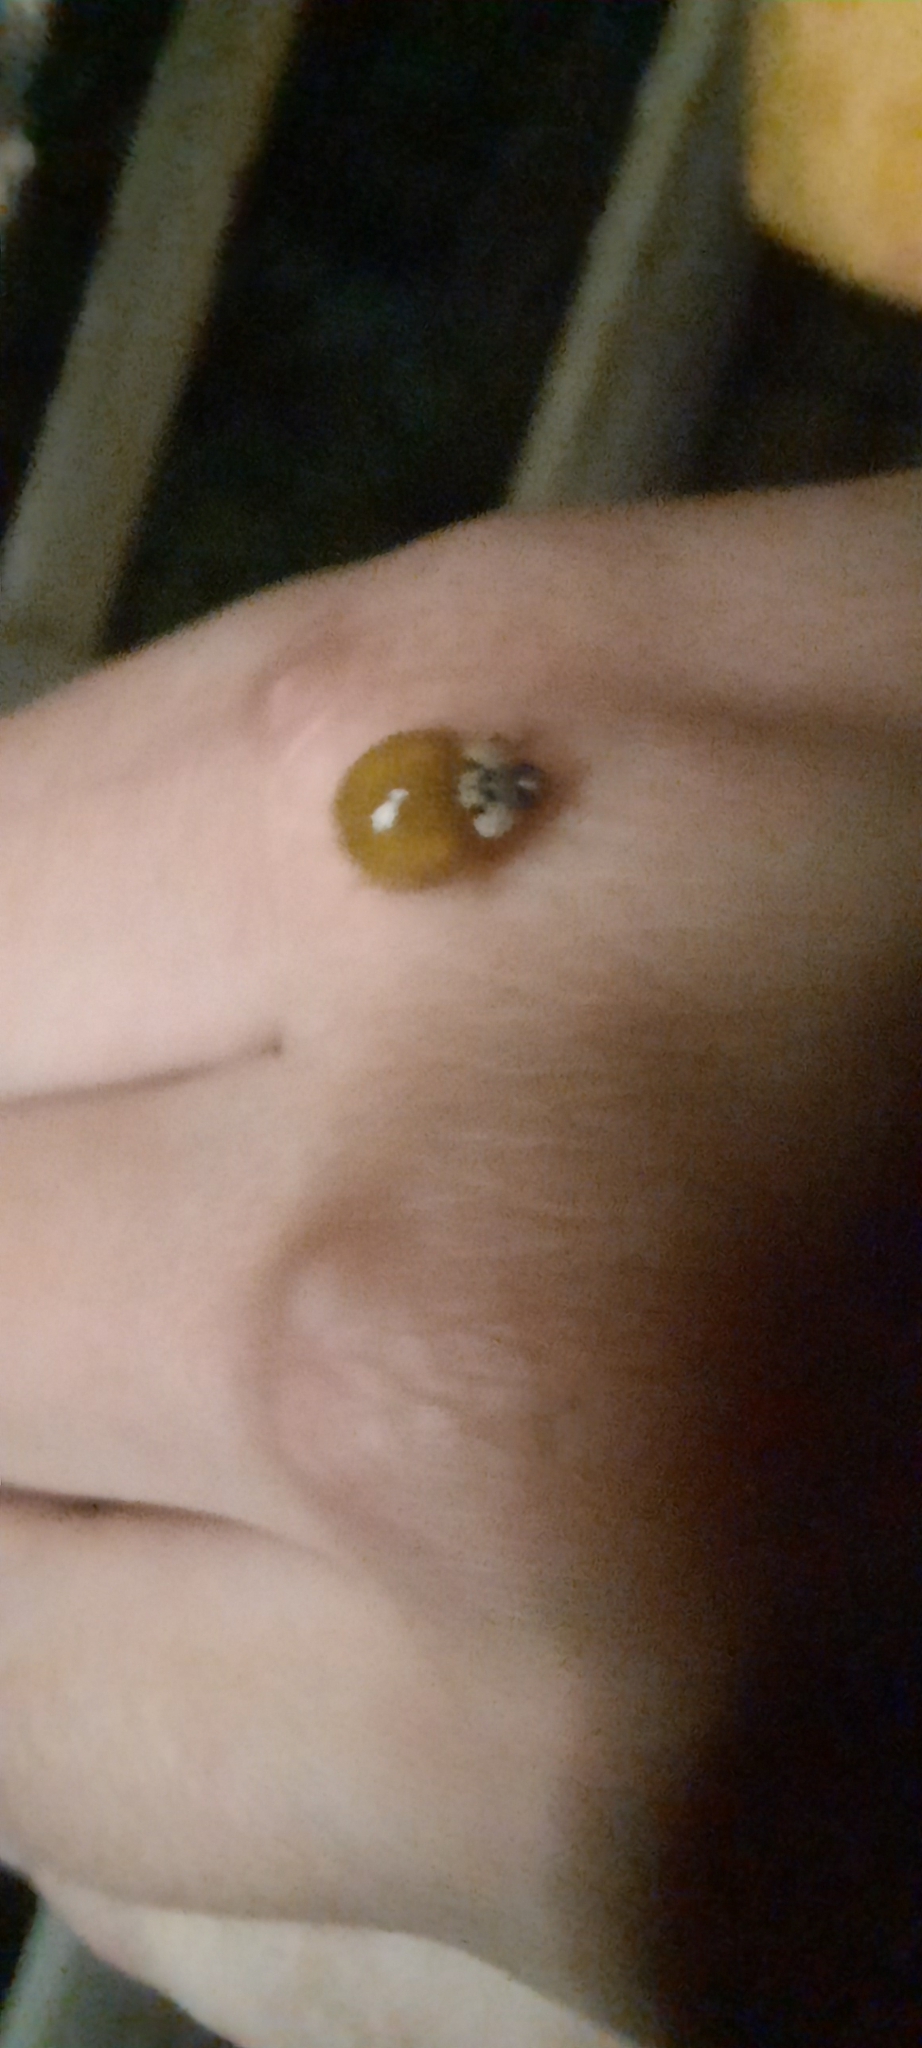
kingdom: Animalia
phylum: Arthropoda
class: Insecta
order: Coleoptera
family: Coccinellidae
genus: Harmonia
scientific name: Harmonia axyridis
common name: Harlequin ladybird
